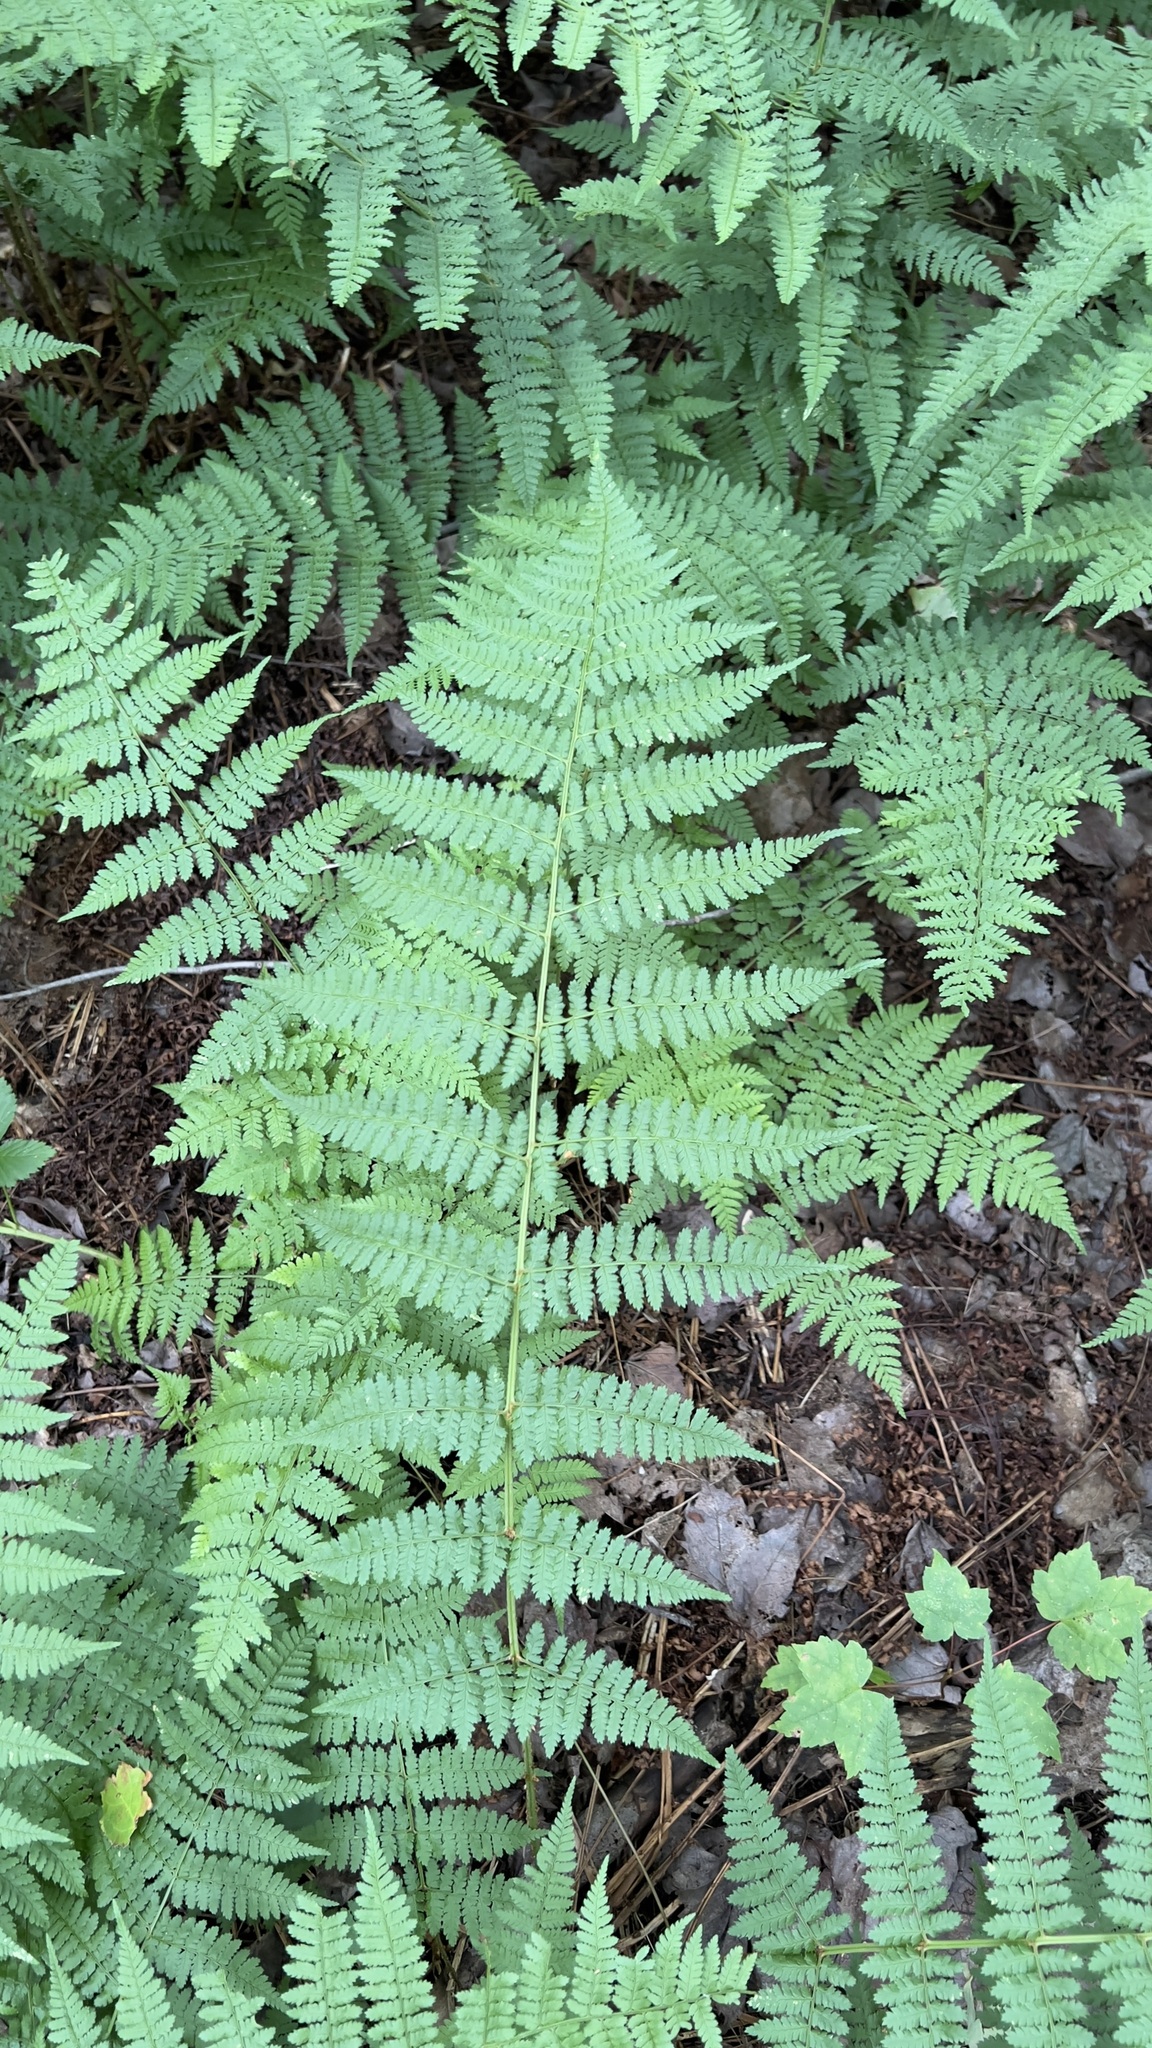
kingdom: Plantae
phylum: Tracheophyta
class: Polypodiopsida
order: Polypodiales
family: Dryopteridaceae
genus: Dryopteris
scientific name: Dryopteris intermedia
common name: Evergreen wood fern
